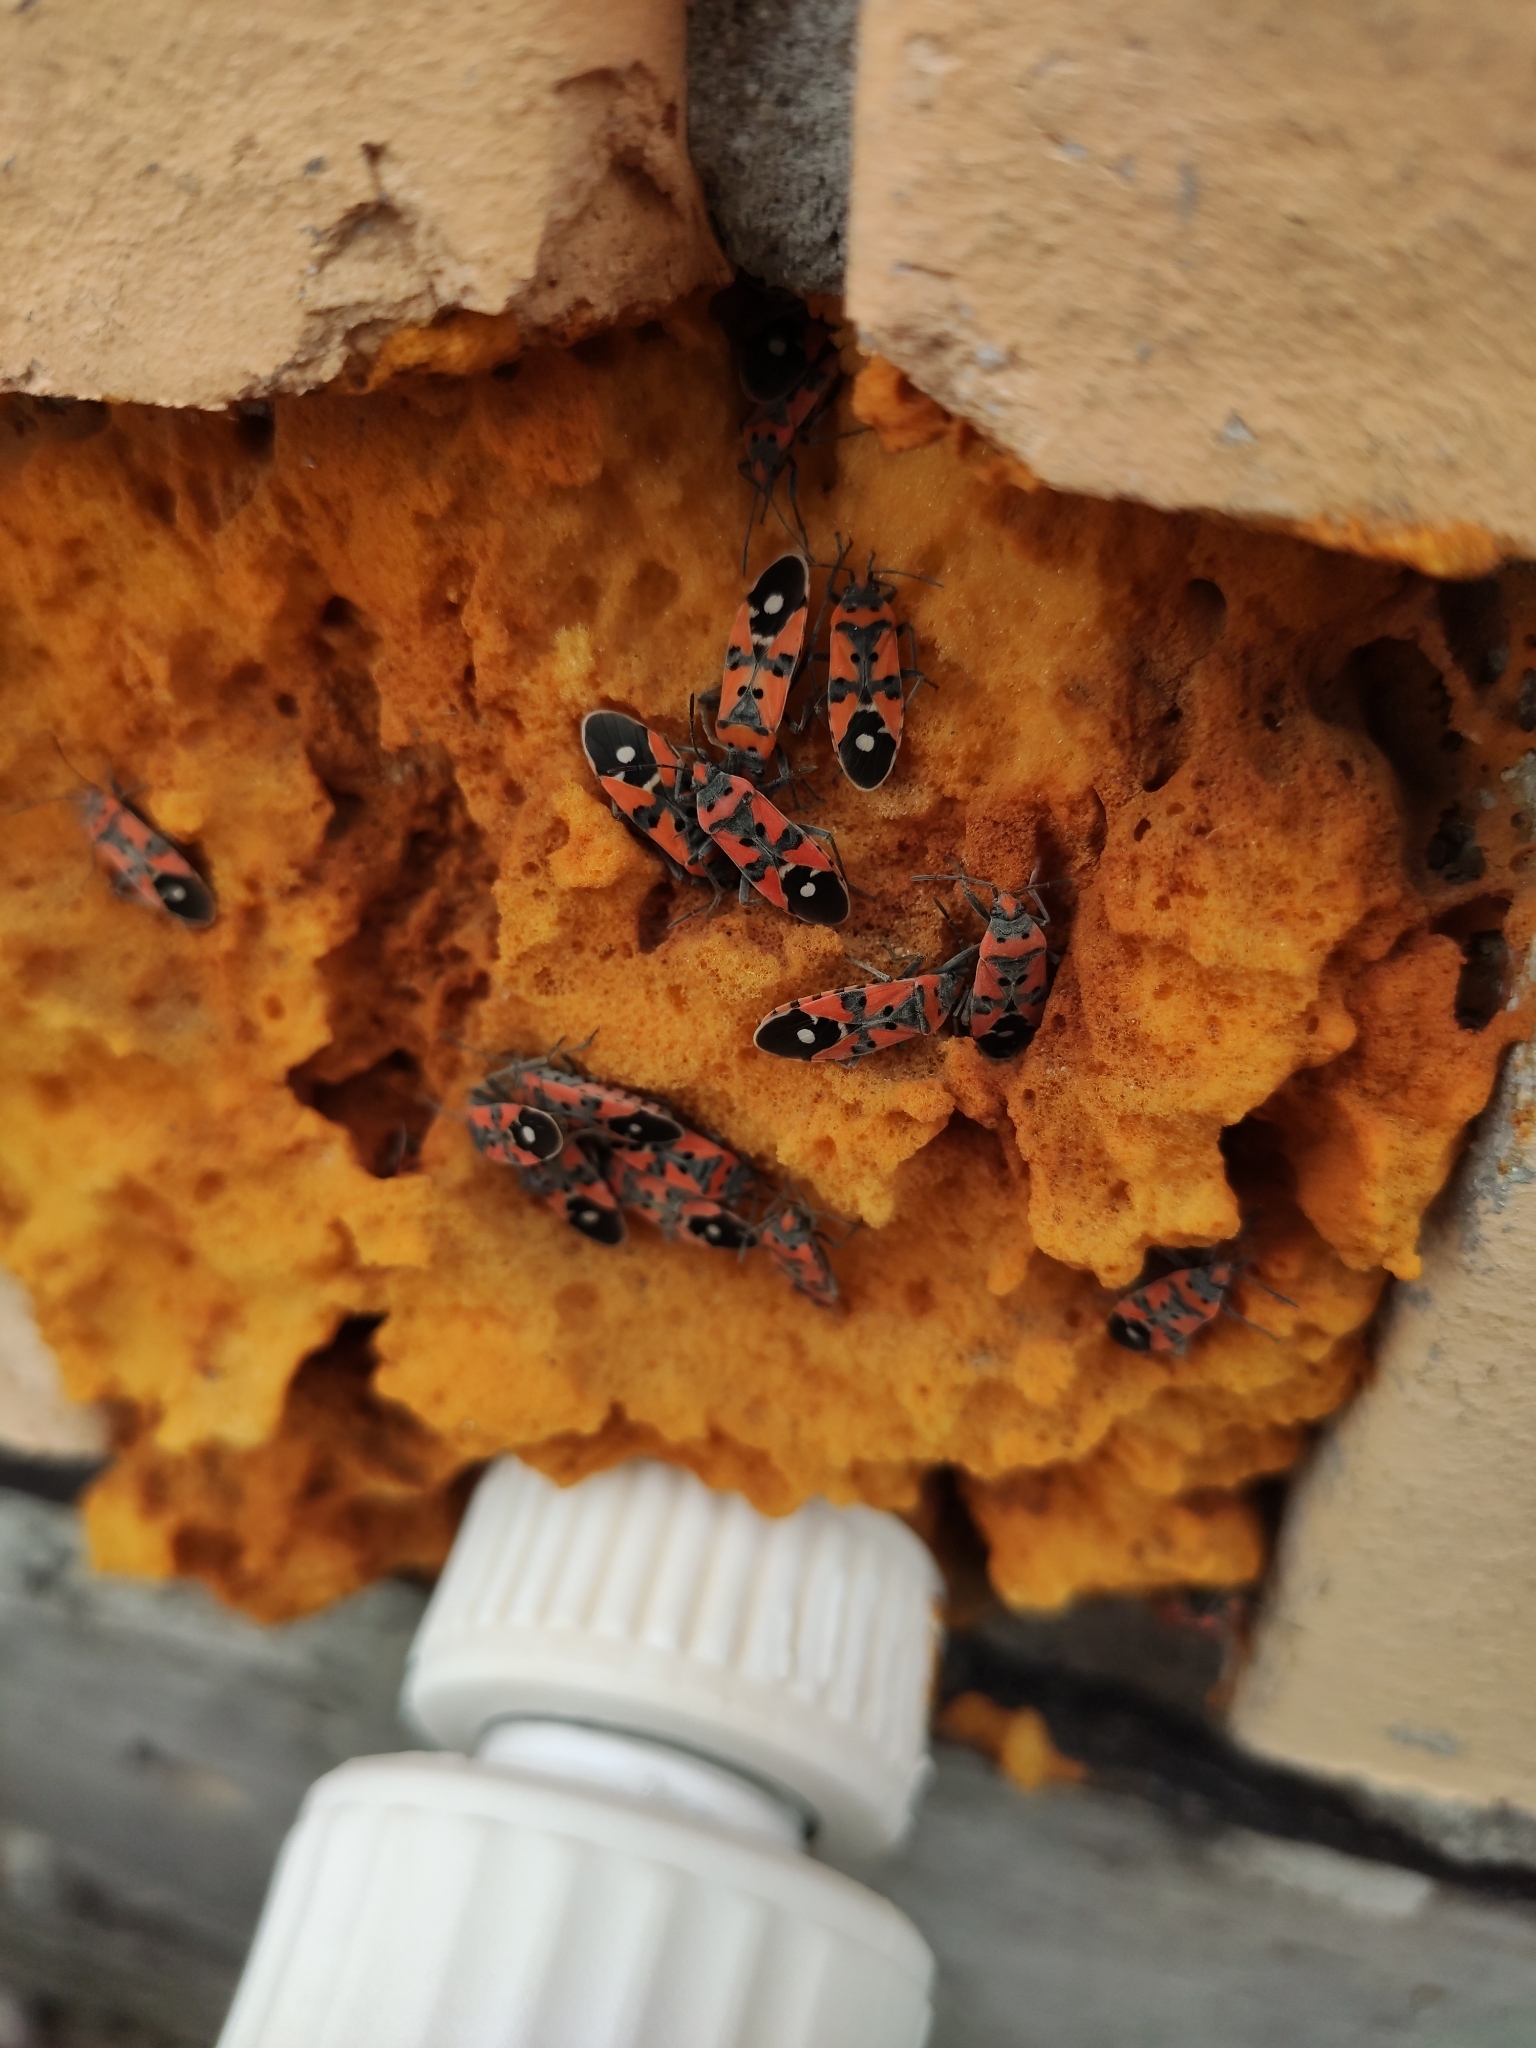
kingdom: Animalia
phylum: Arthropoda
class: Insecta
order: Hemiptera
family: Lygaeidae
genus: Lygaeus
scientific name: Lygaeus equestris
